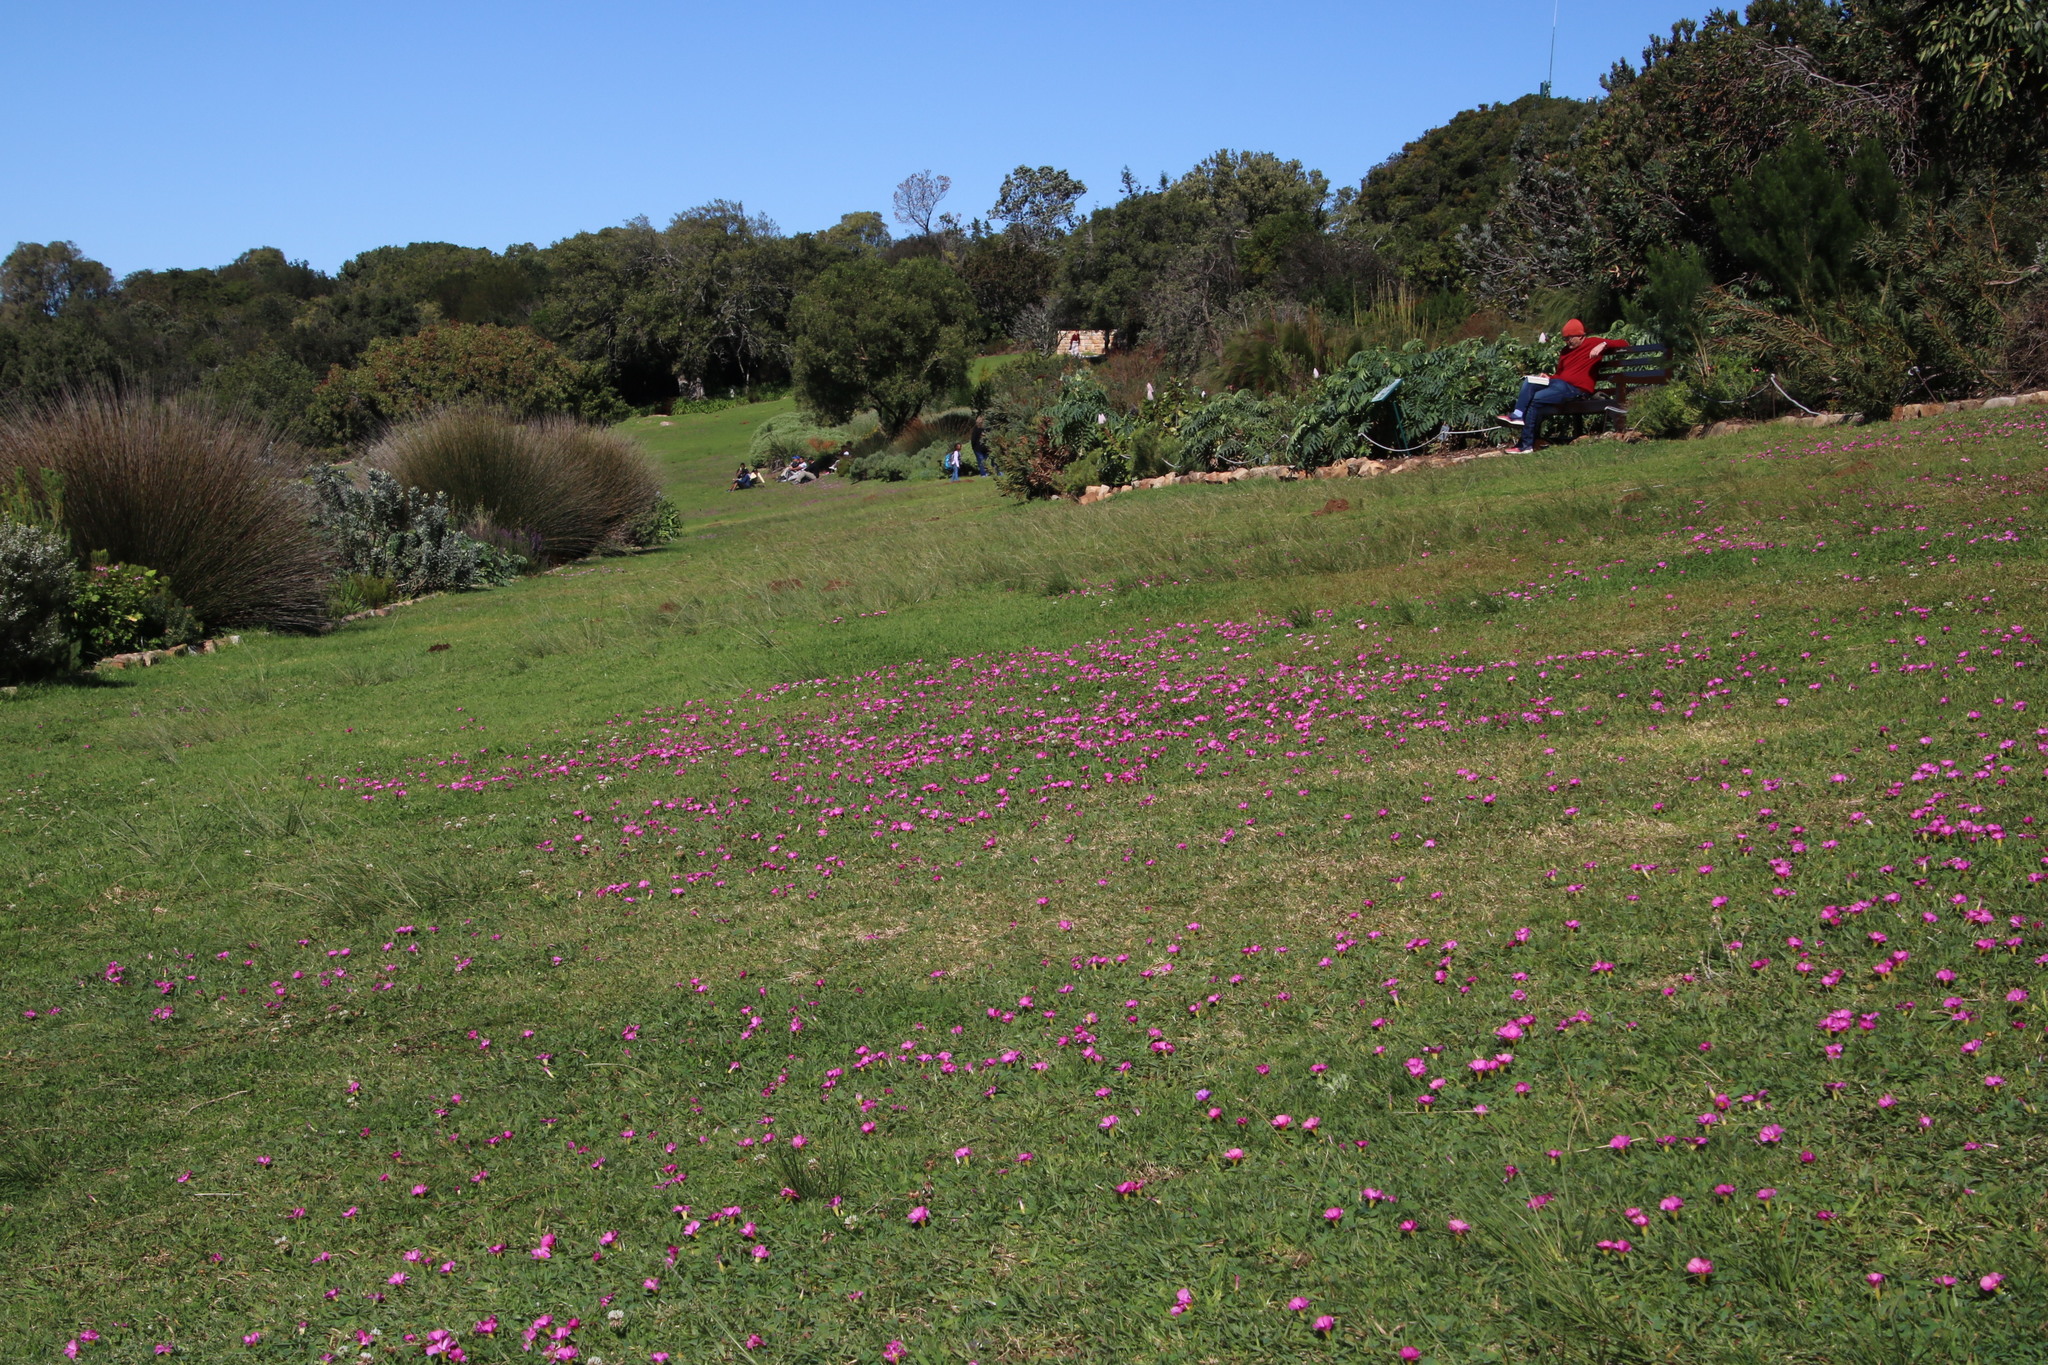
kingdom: Plantae
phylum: Tracheophyta
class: Magnoliopsida
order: Oxalidales
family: Oxalidaceae
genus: Oxalis
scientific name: Oxalis purpurea
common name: Purple woodsorrel
